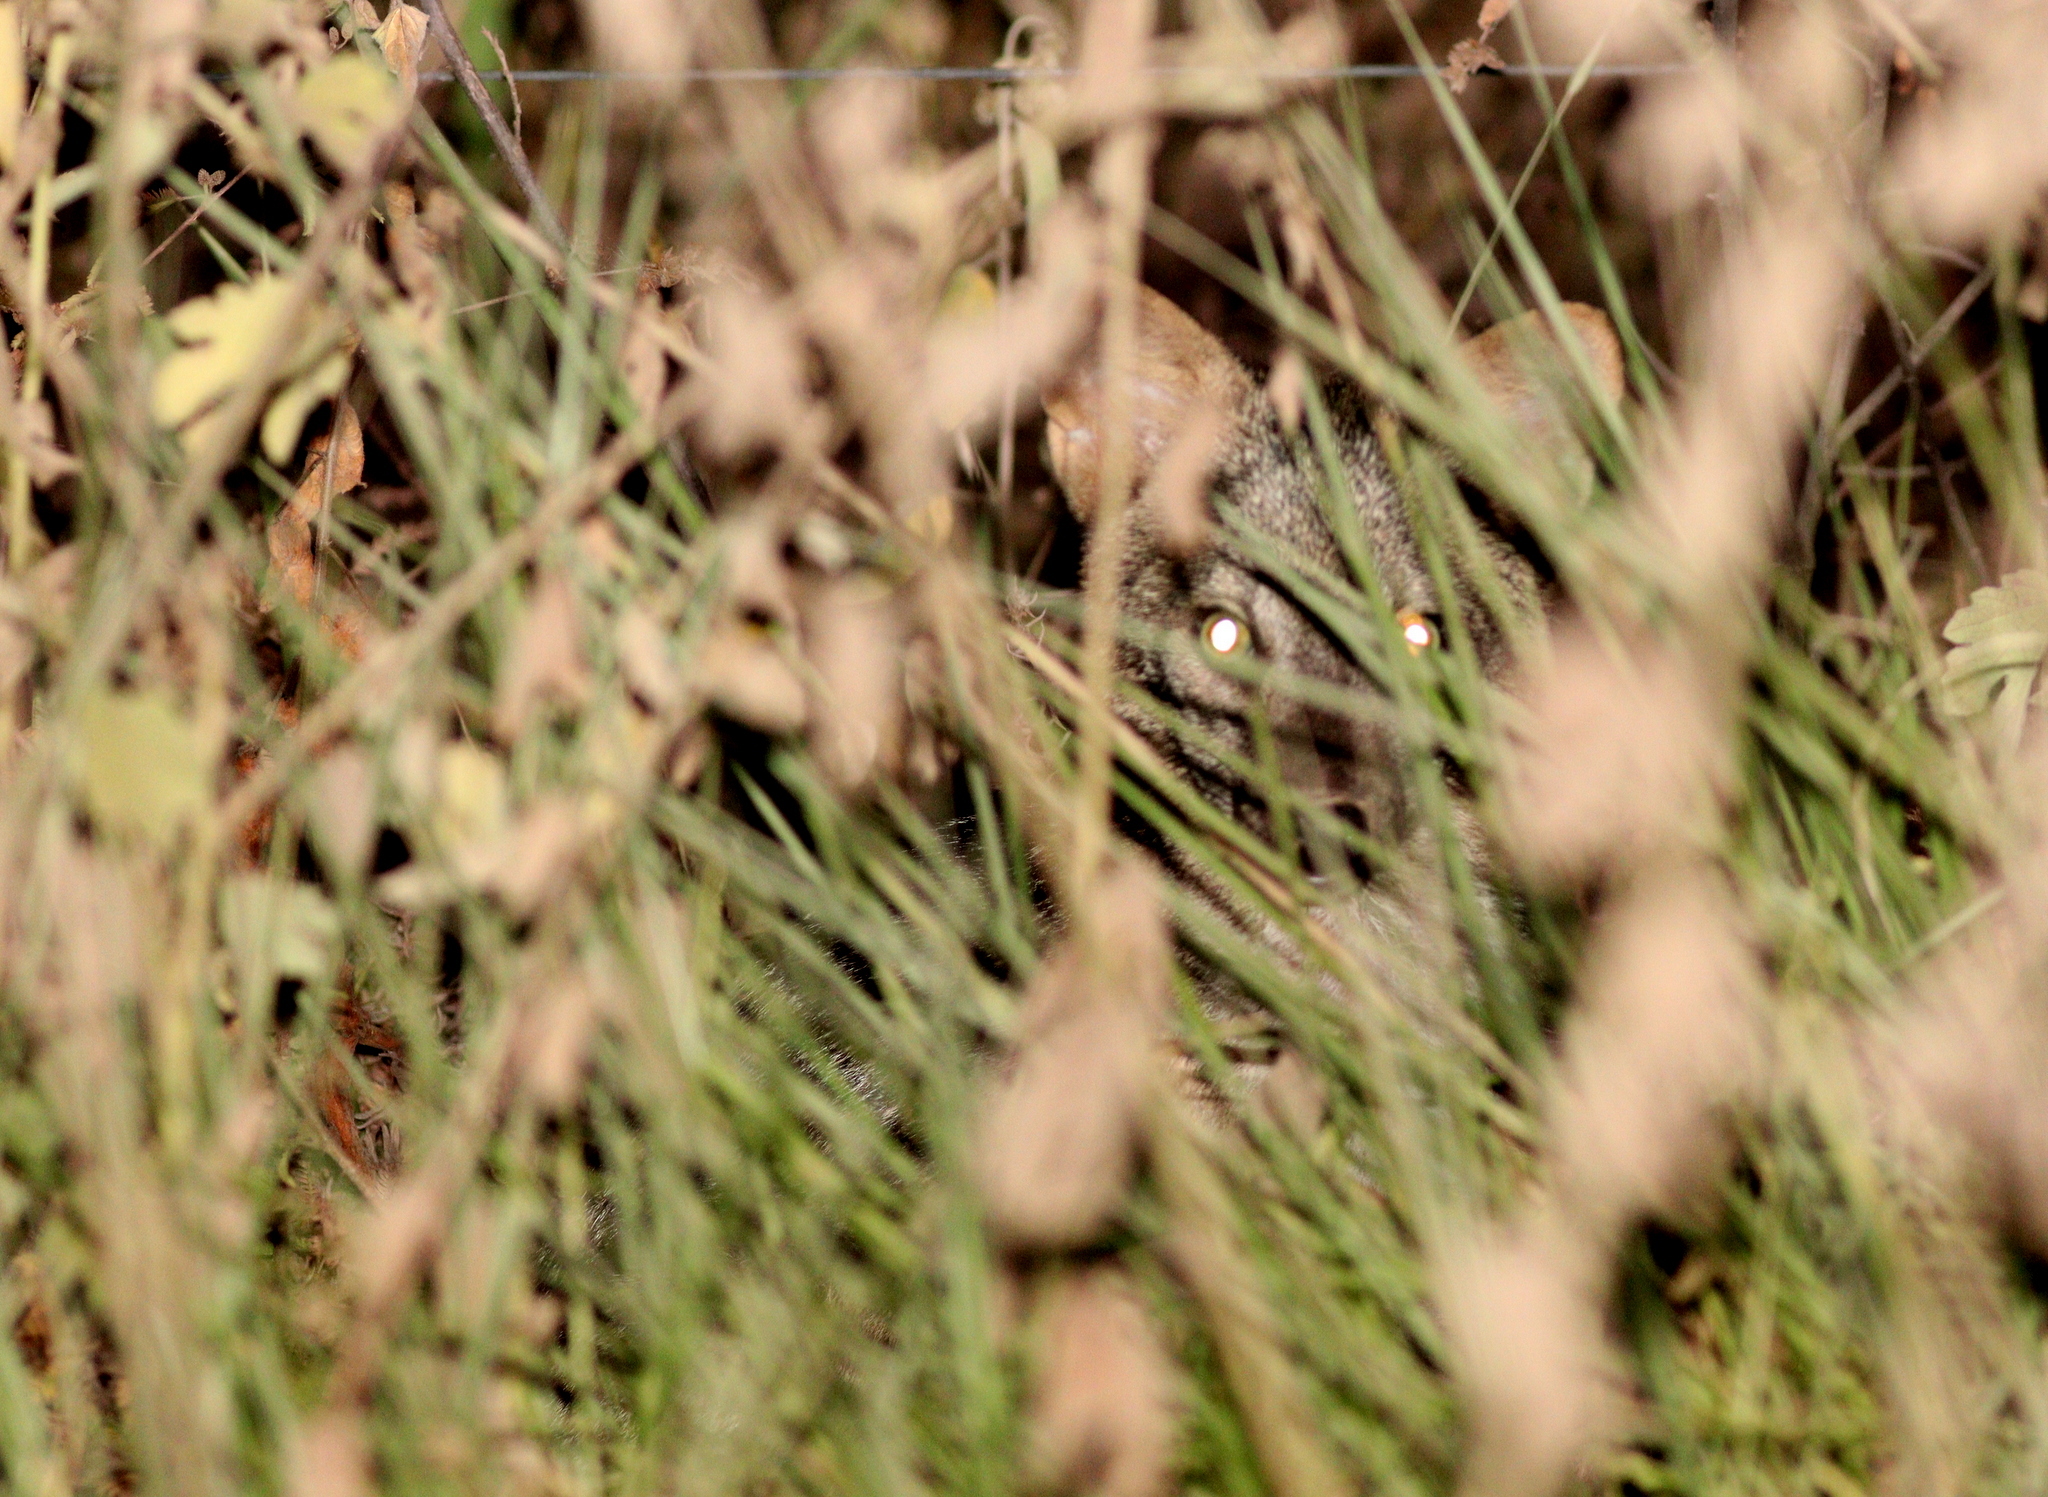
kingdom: Animalia
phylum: Chordata
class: Mammalia
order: Carnivora
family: Canidae
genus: Cerdocyon
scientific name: Cerdocyon thous
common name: Crab-eating fox
